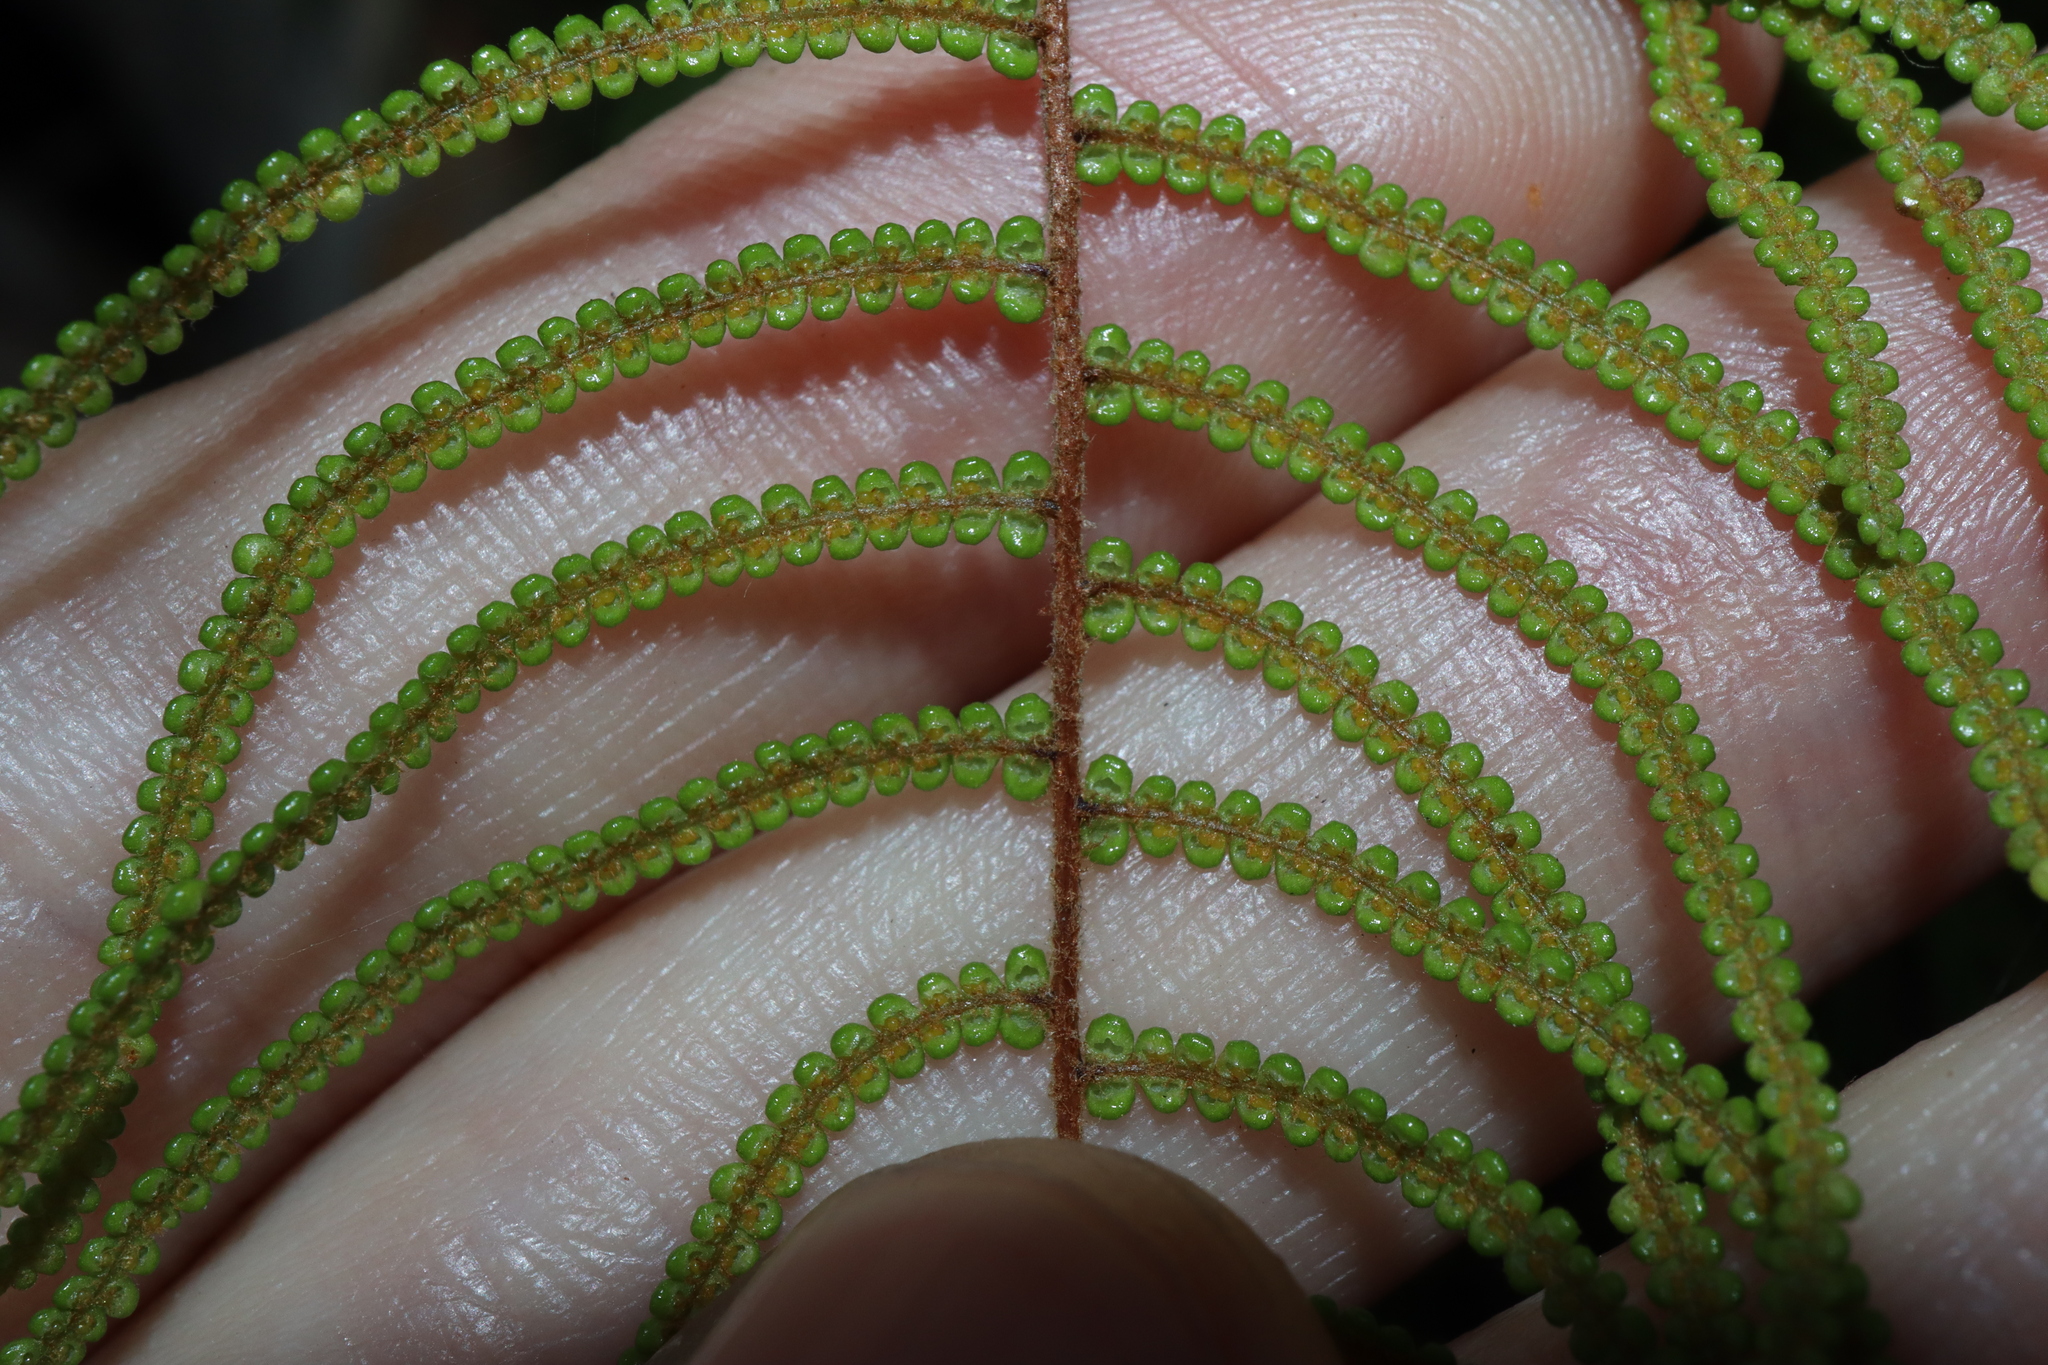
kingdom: Plantae
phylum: Tracheophyta
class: Polypodiopsida
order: Gleicheniales
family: Gleicheniaceae
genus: Gleichenia
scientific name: Gleichenia dicarpa
